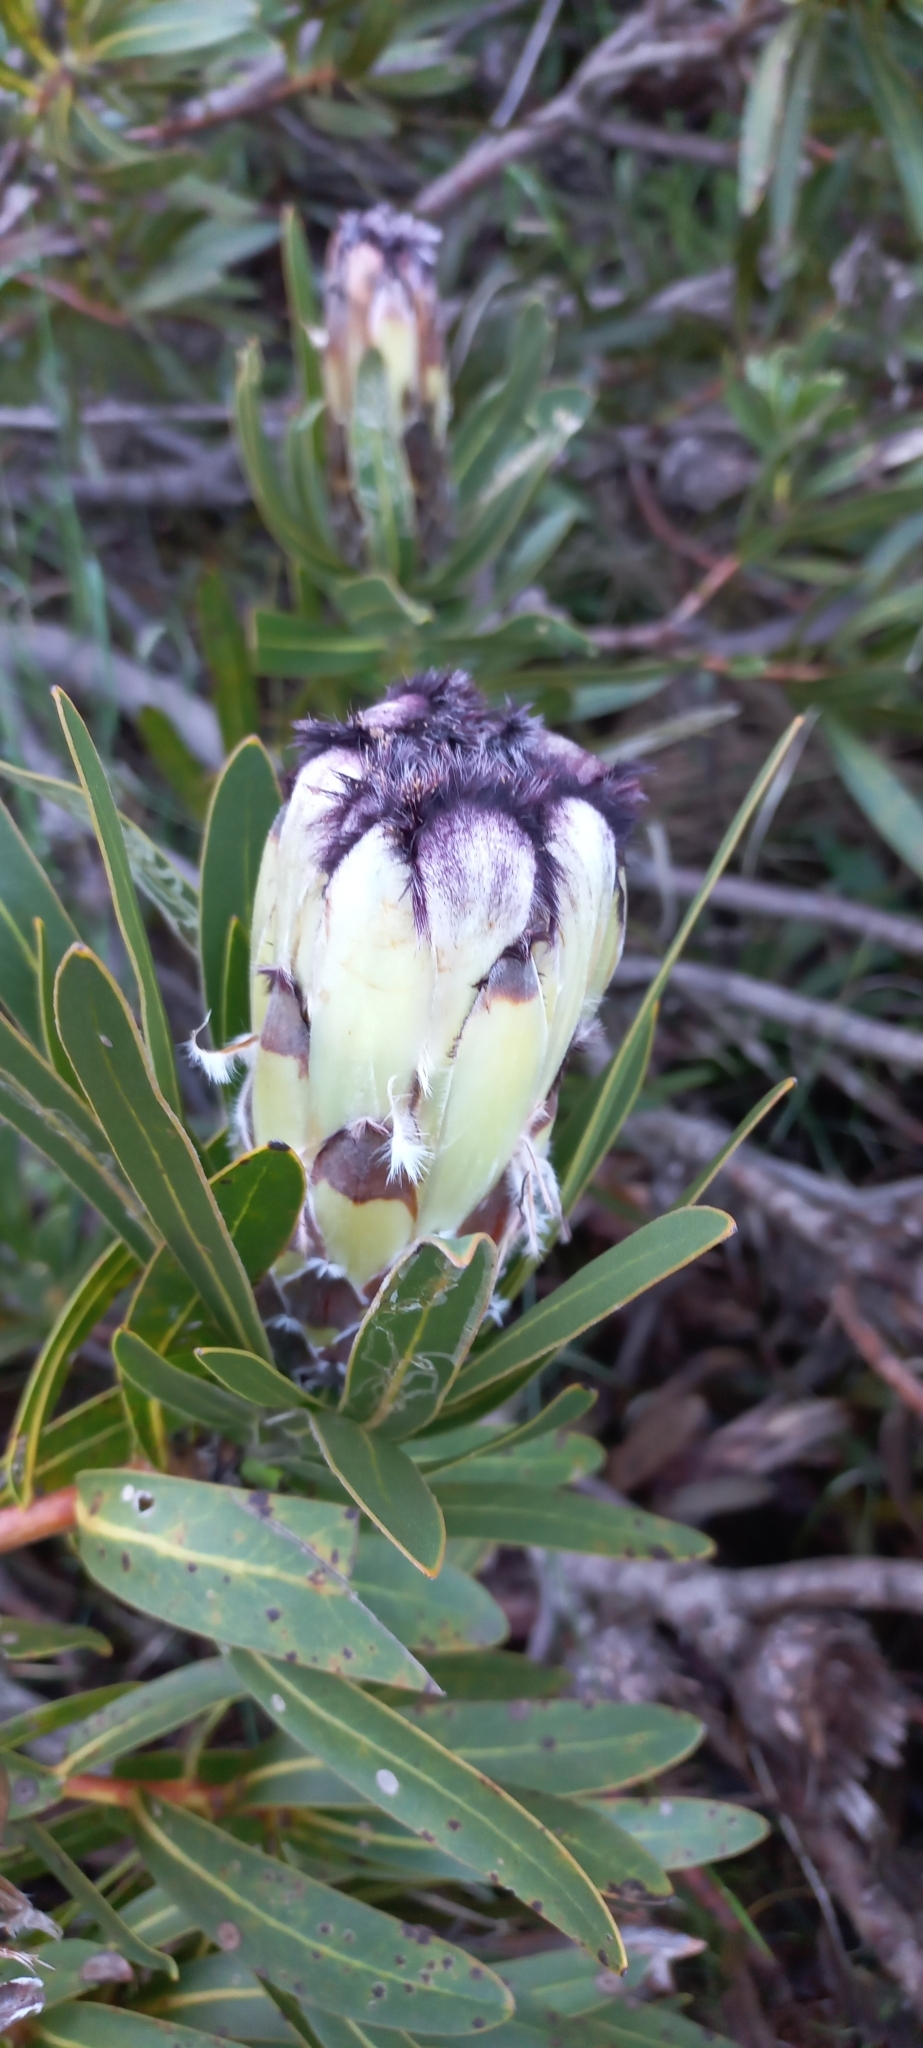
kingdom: Plantae
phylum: Tracheophyta
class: Magnoliopsida
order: Proteales
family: Proteaceae
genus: Protea
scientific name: Protea
